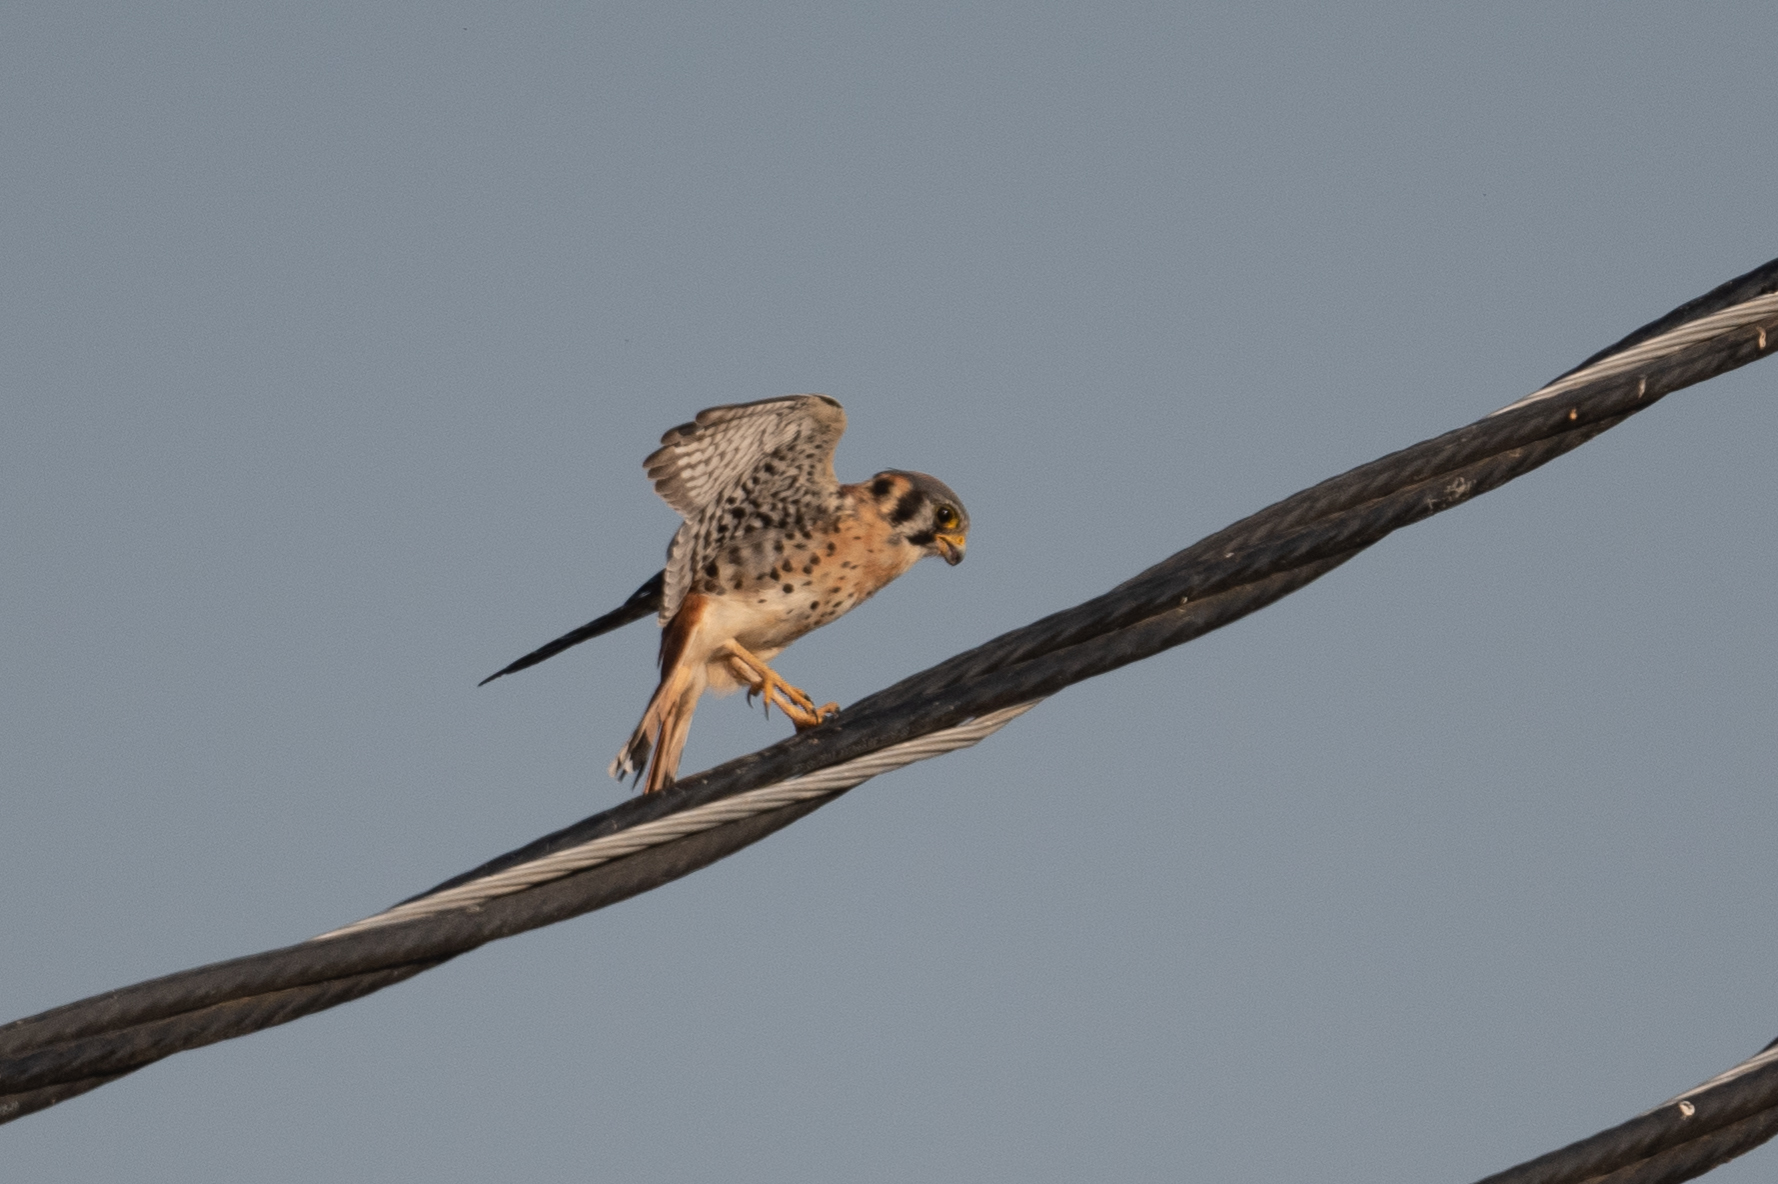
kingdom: Animalia
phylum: Chordata
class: Aves
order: Falconiformes
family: Falconidae
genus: Falco
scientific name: Falco sparverius
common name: American kestrel
